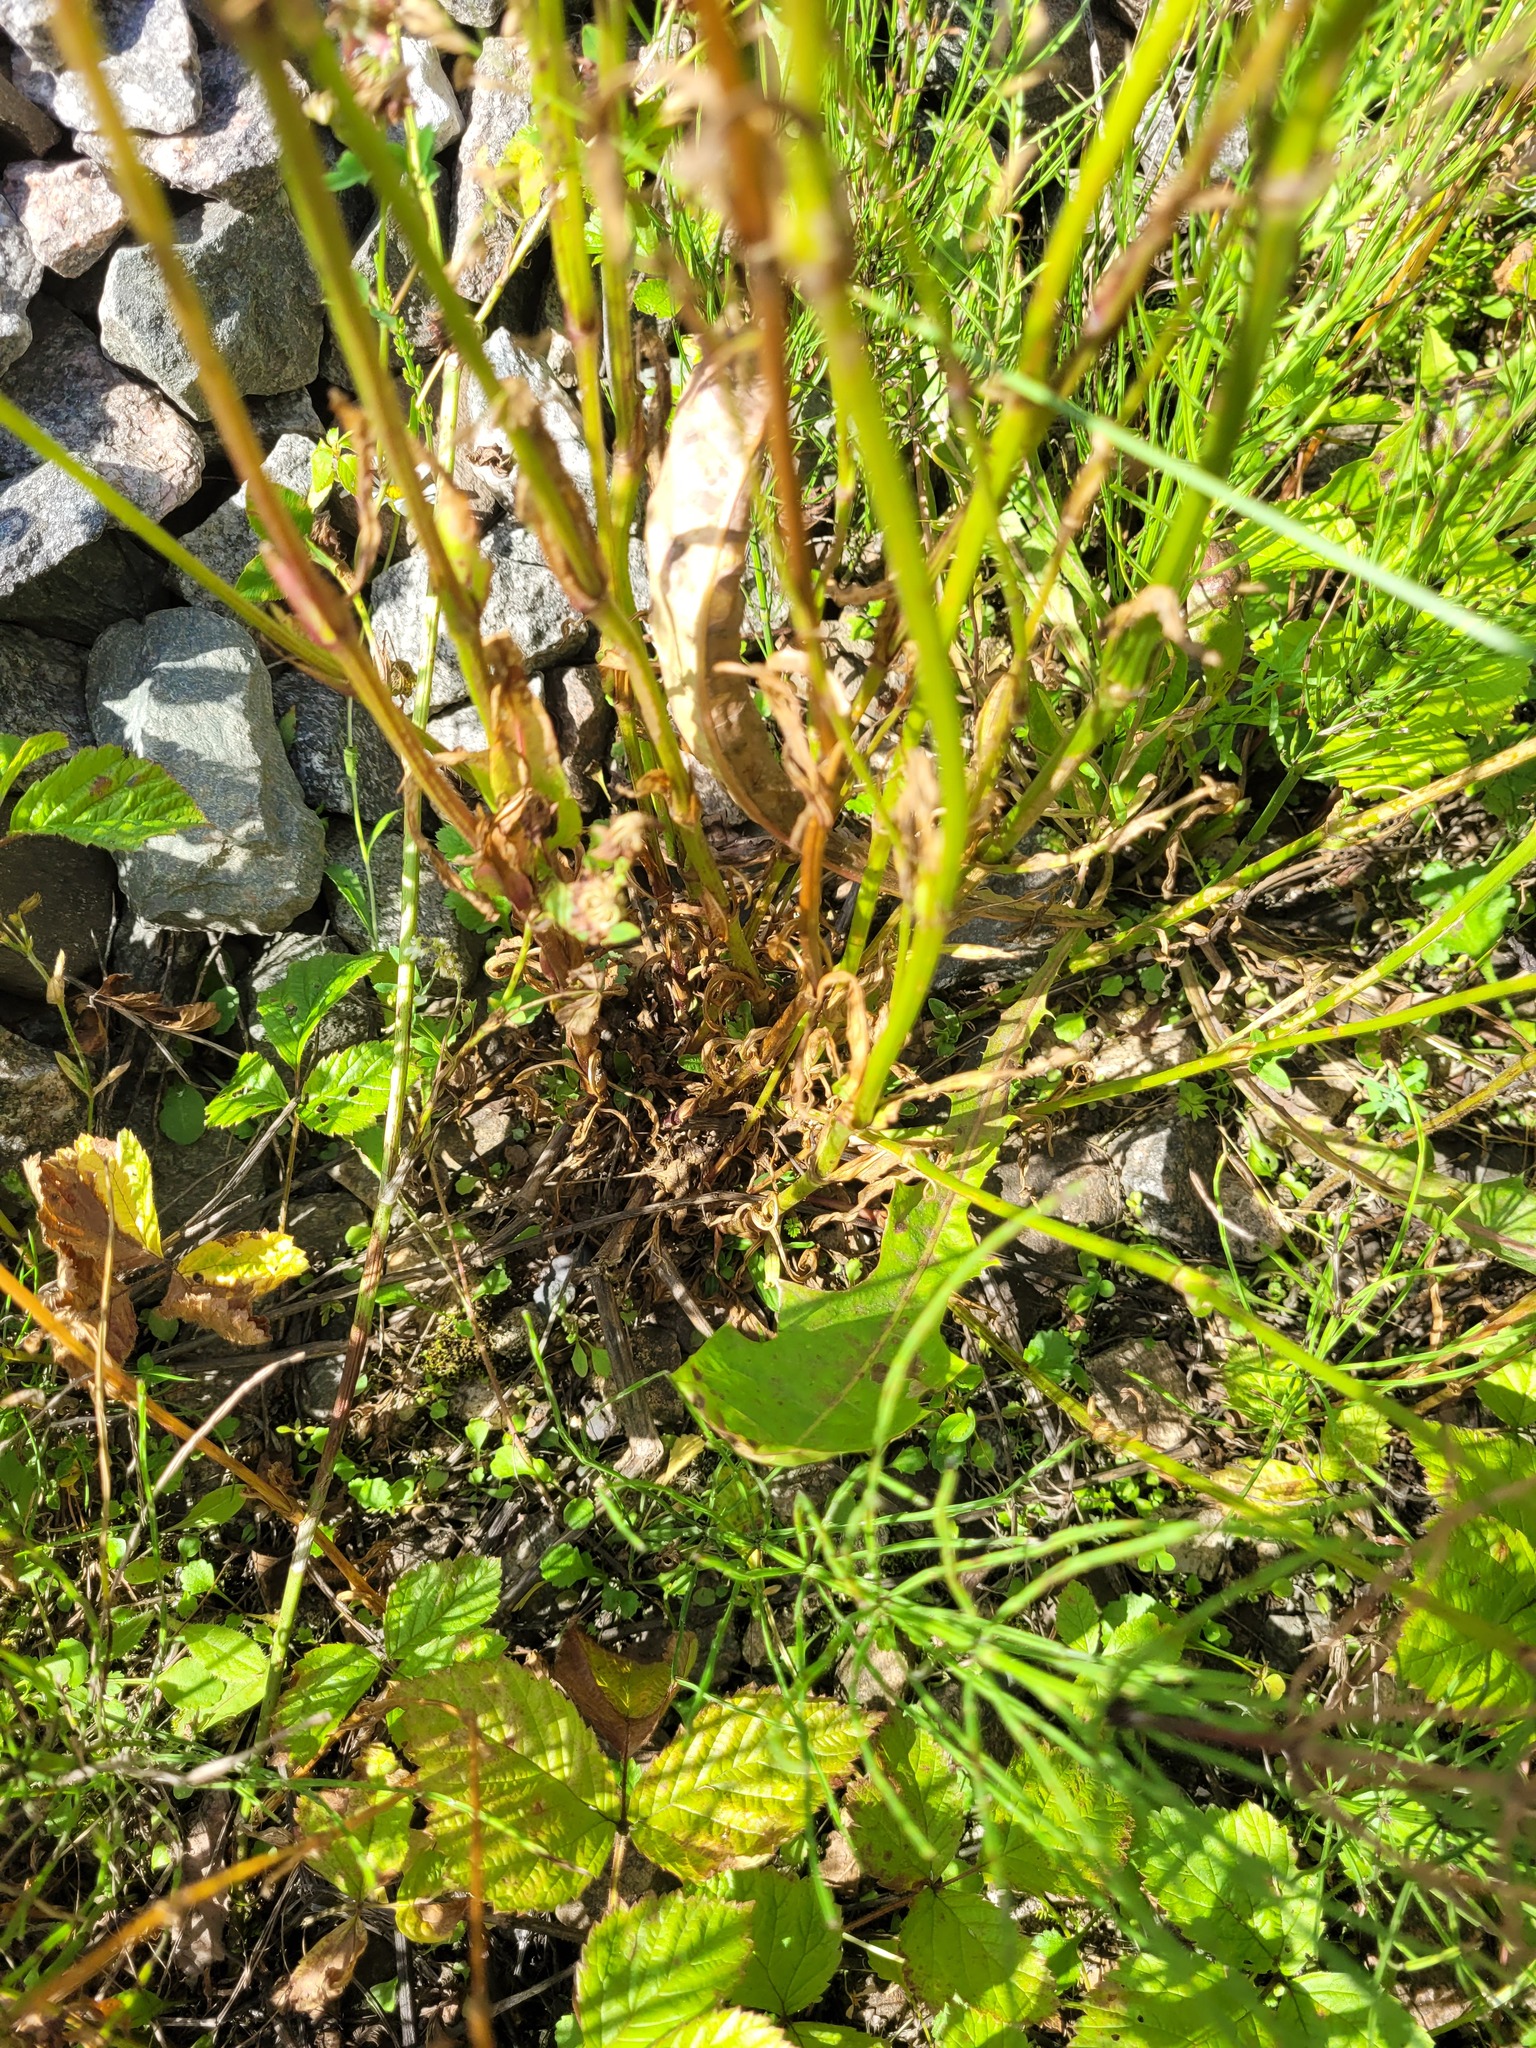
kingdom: Plantae
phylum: Tracheophyta
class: Magnoliopsida
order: Caryophyllales
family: Caryophyllaceae
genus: Silene
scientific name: Silene flos-cuculi
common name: Ragged-robin
